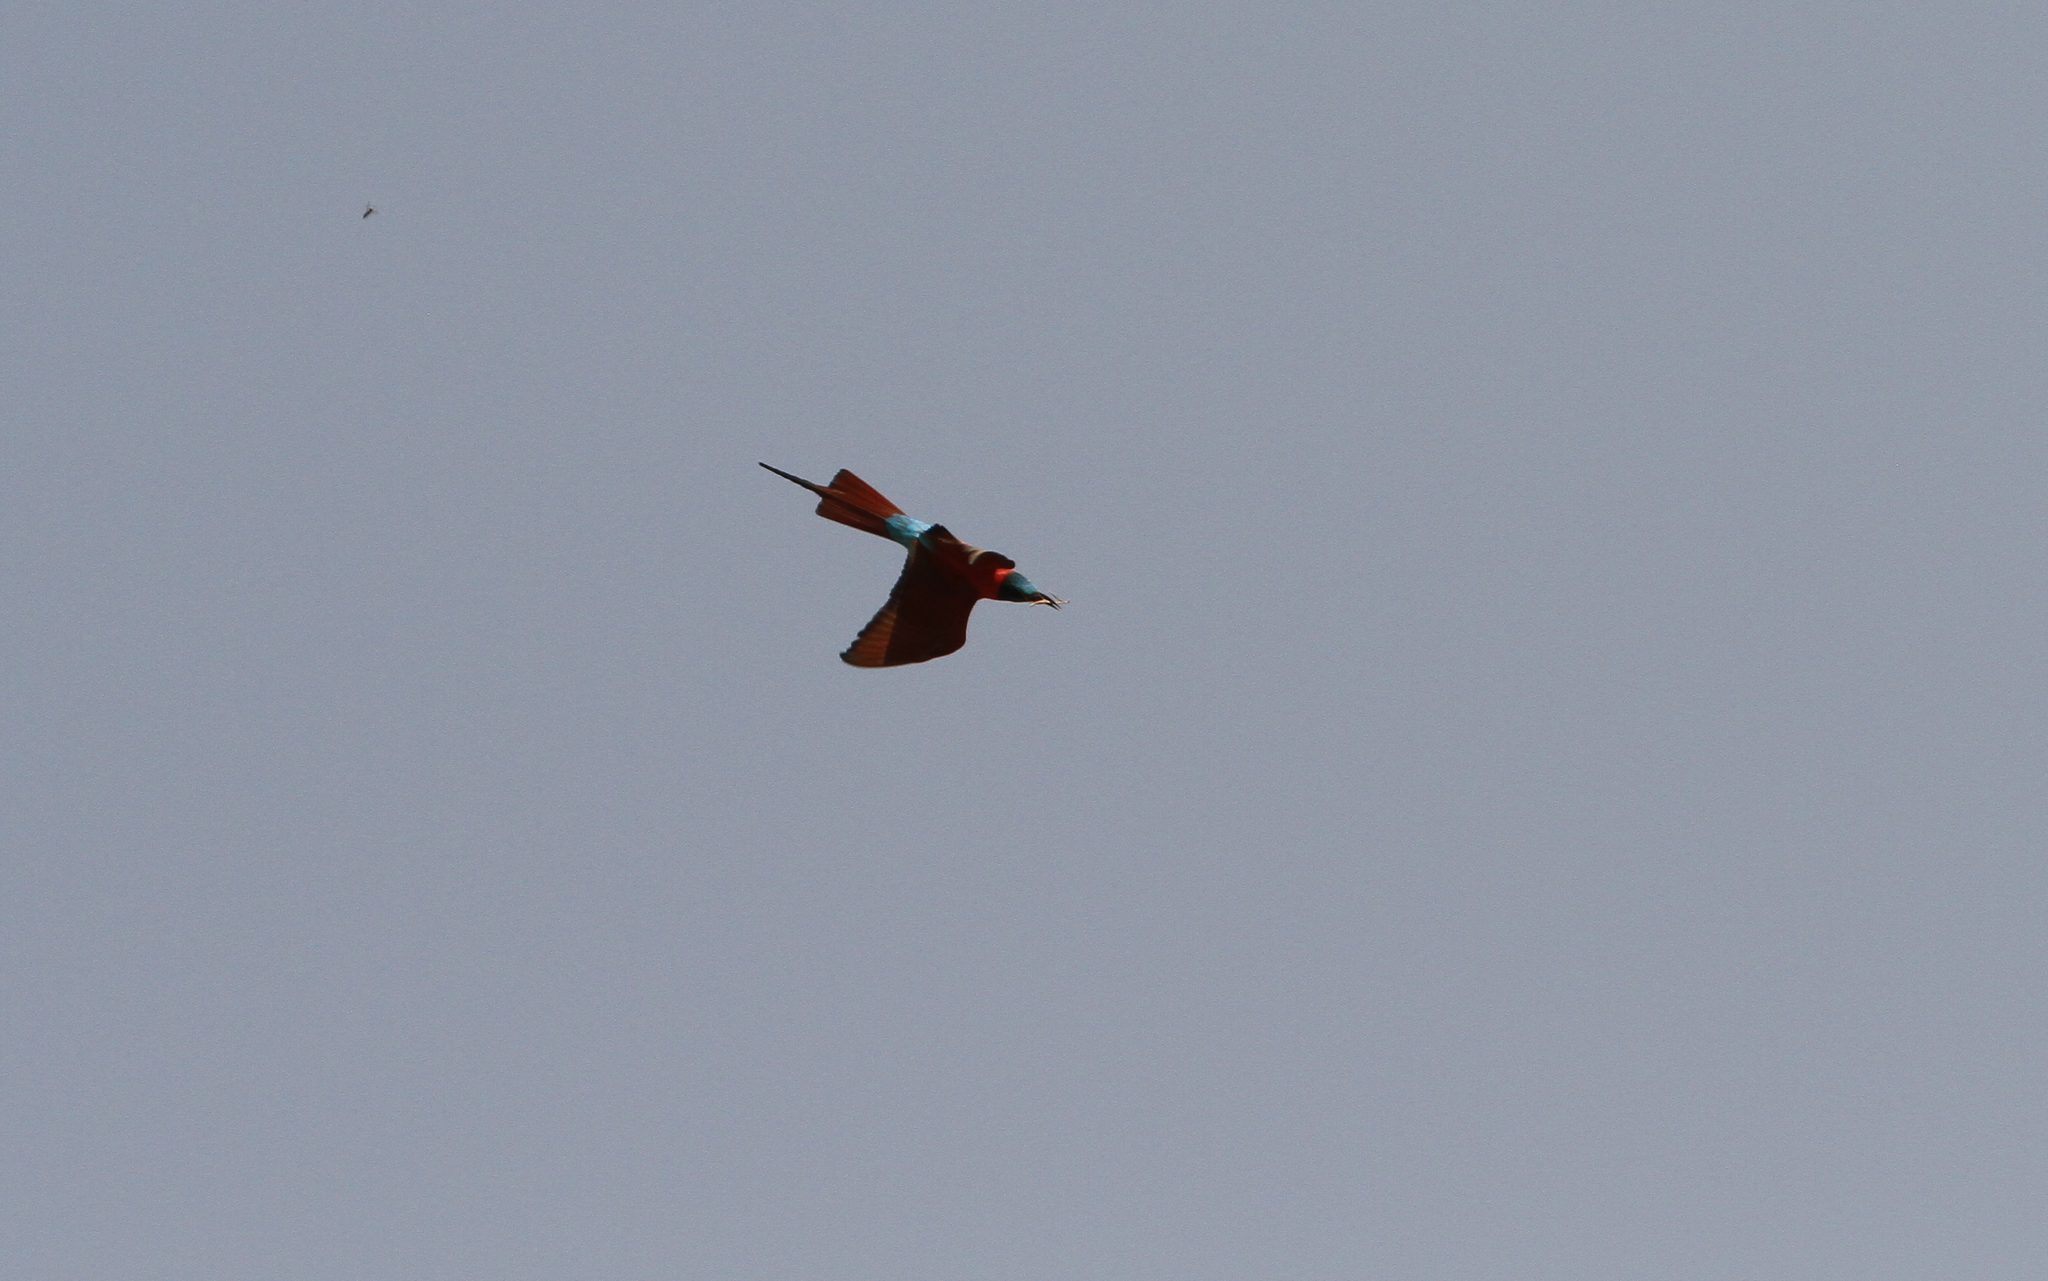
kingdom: Animalia
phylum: Chordata
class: Aves
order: Coraciiformes
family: Meropidae
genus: Merops
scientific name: Merops nubicus
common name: Northern carmine bee-eater
